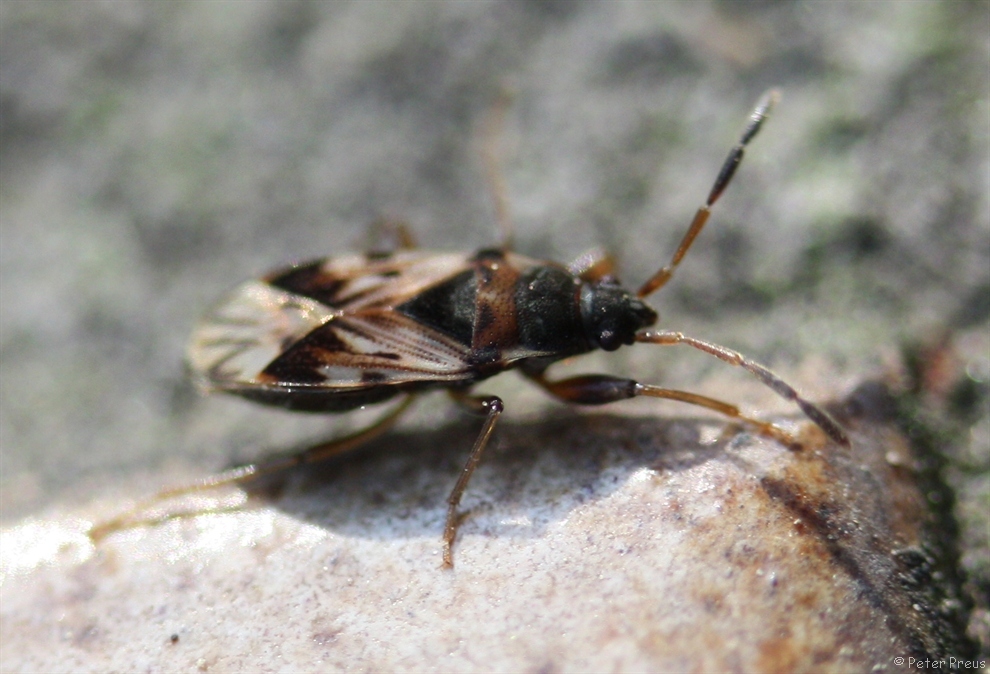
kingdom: Animalia
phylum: Arthropoda
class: Insecta
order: Hemiptera
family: Rhyparochromidae
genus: Scolopostethus
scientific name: Scolopostethus affinis
